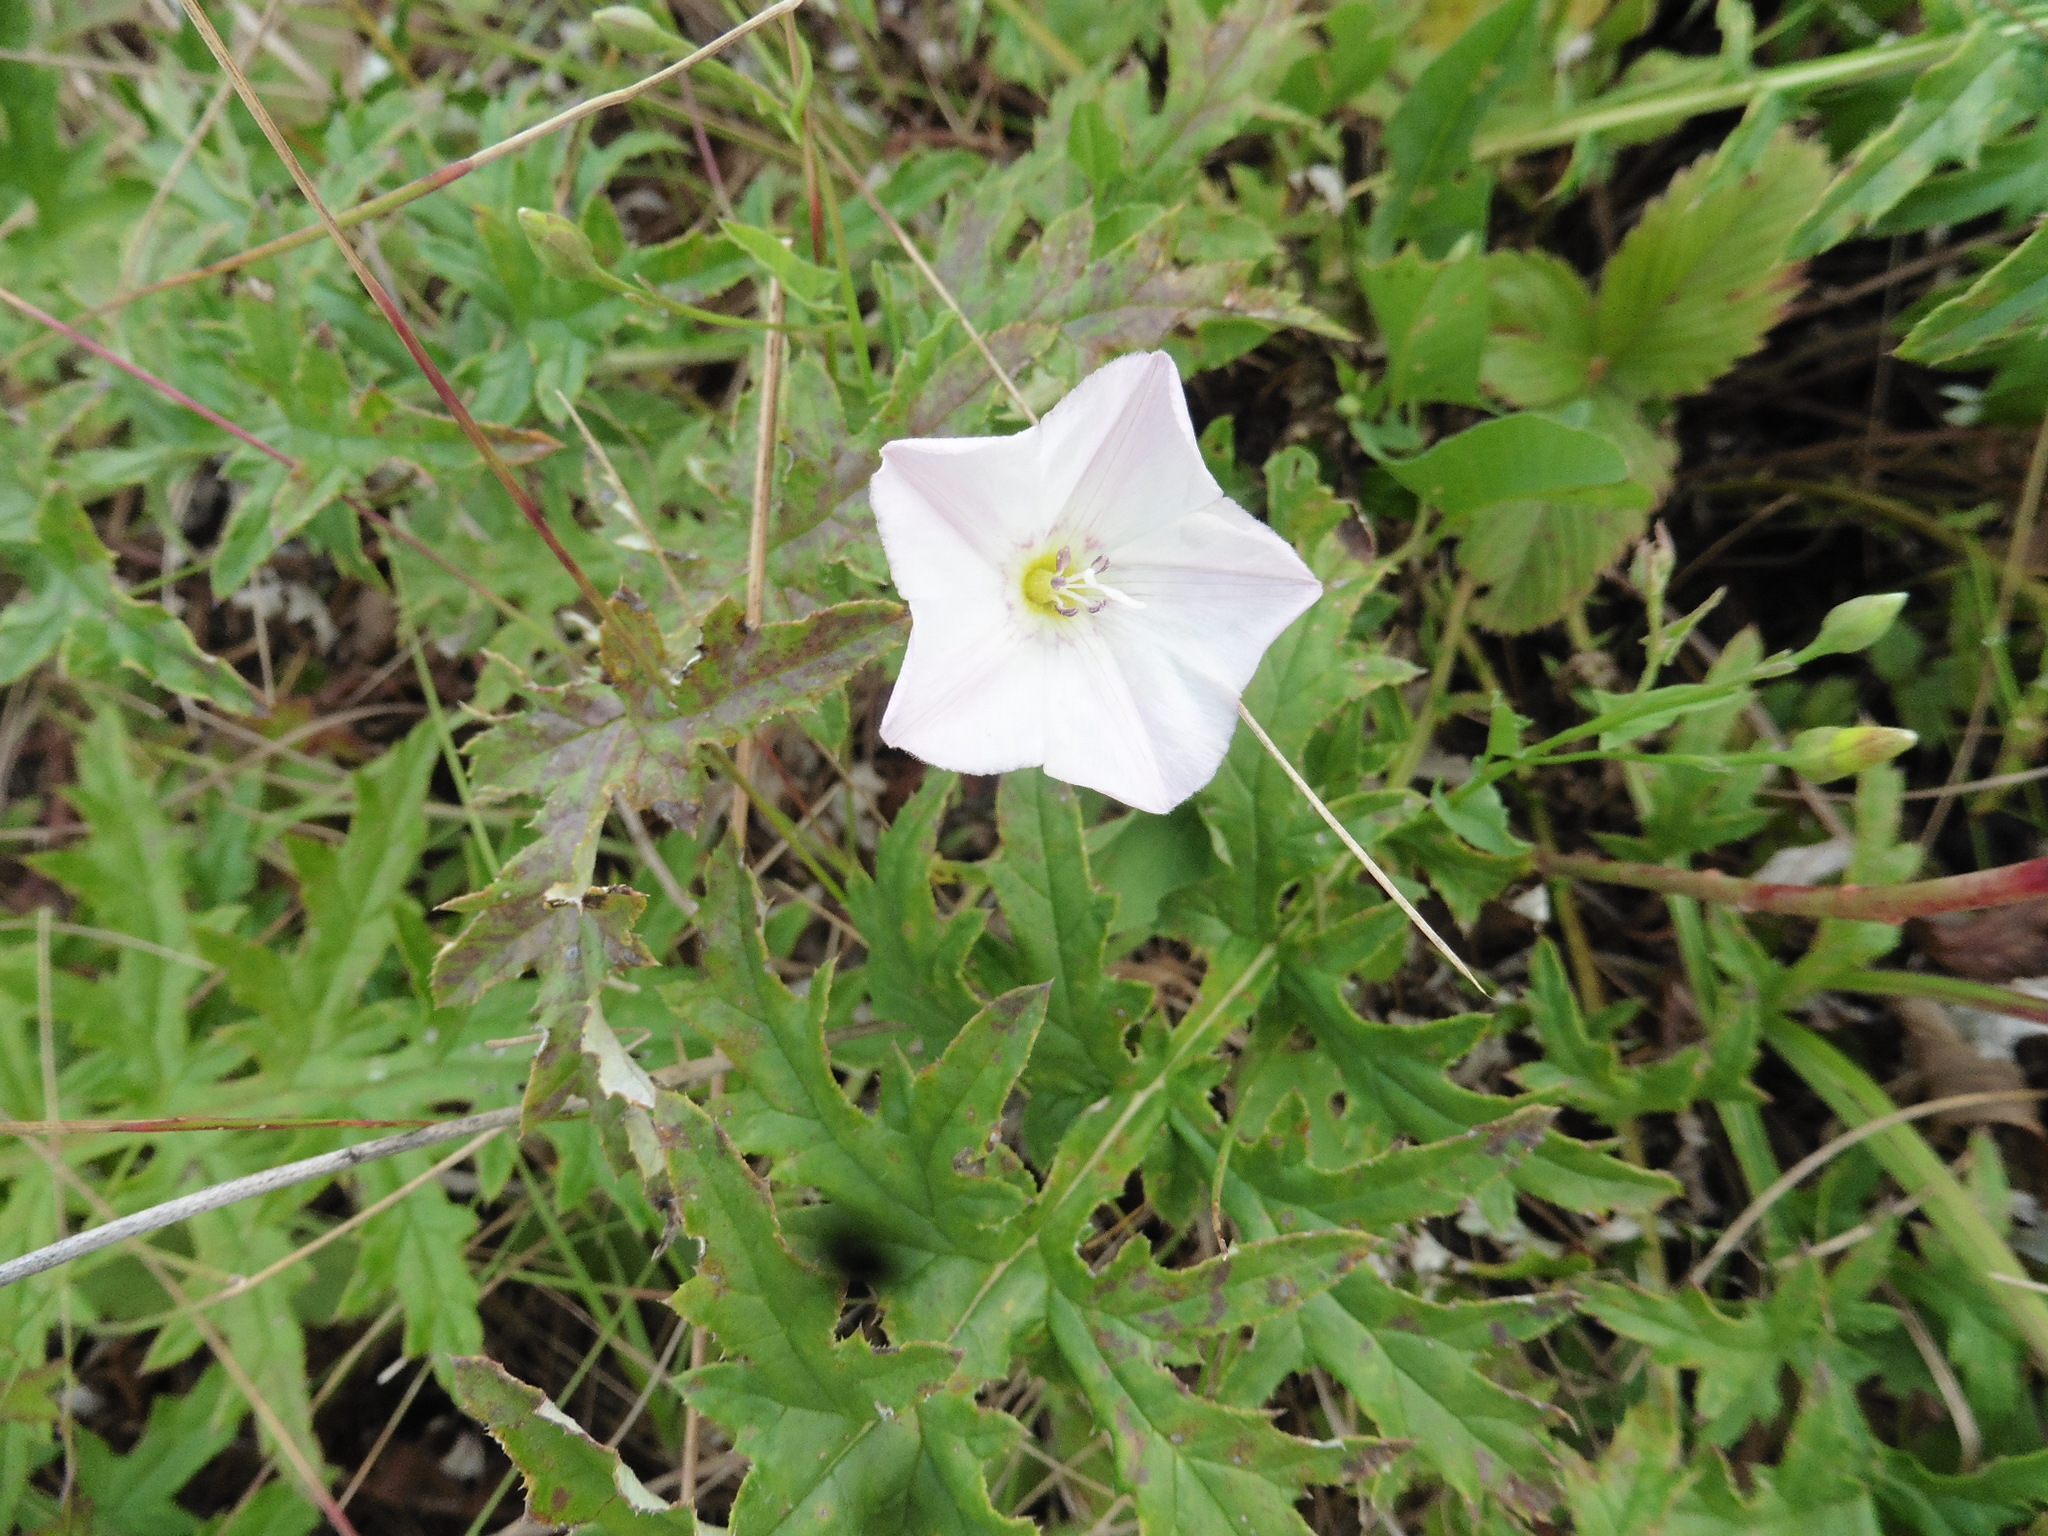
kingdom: Plantae
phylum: Tracheophyta
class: Magnoliopsida
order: Solanales
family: Convolvulaceae
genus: Convolvulus
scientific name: Convolvulus arvensis
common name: Field bindweed
